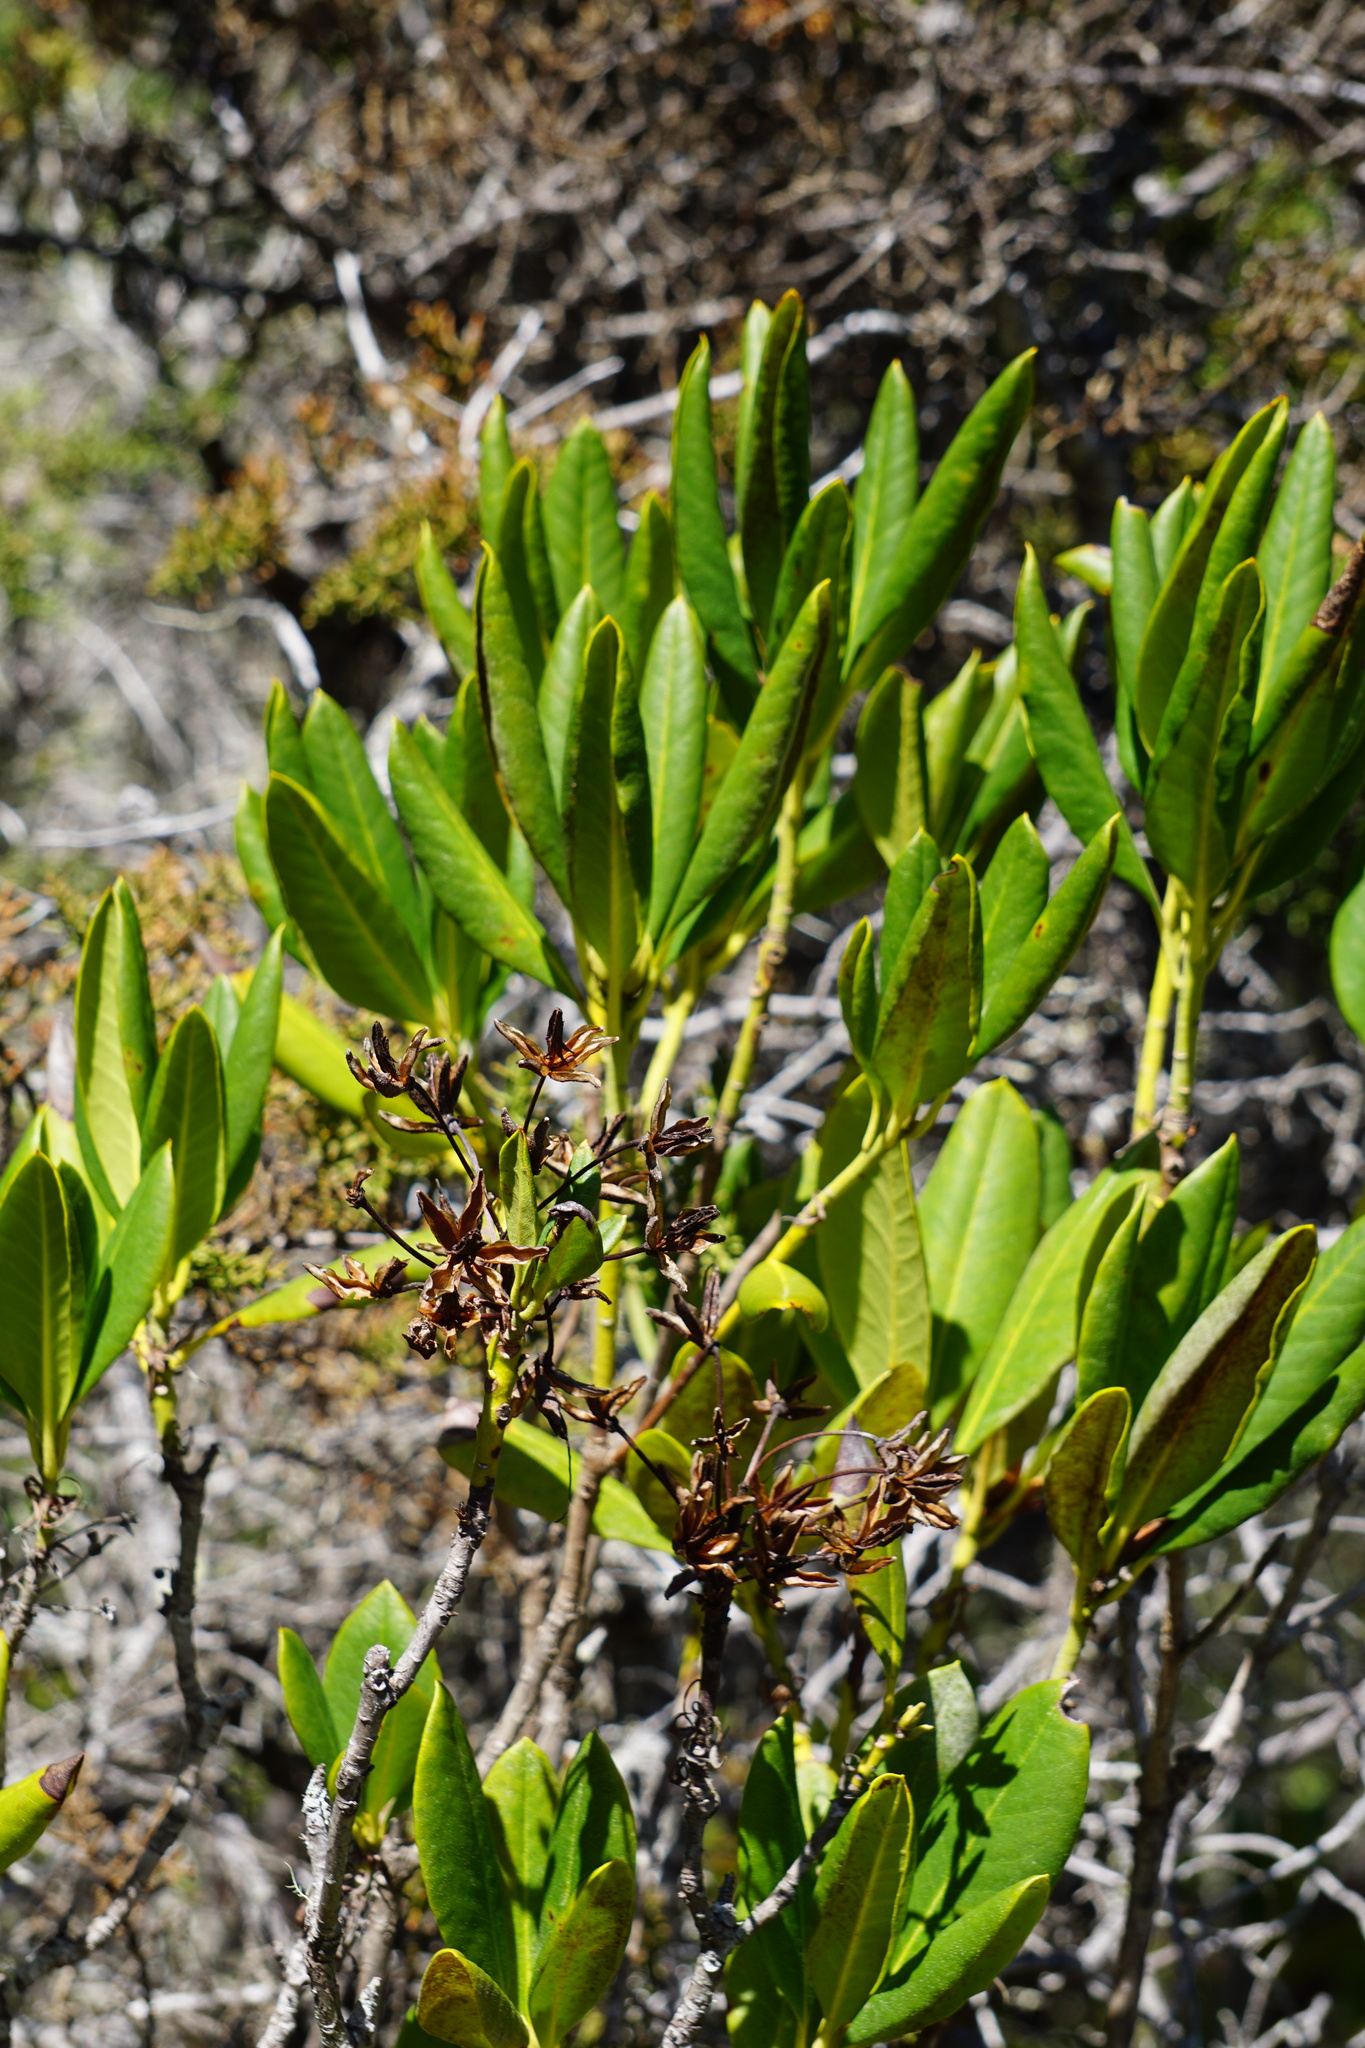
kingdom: Plantae
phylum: Tracheophyta
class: Magnoliopsida
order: Ericales
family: Ericaceae
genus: Rhododendron
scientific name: Rhododendron columbianum
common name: Western labrador tea
